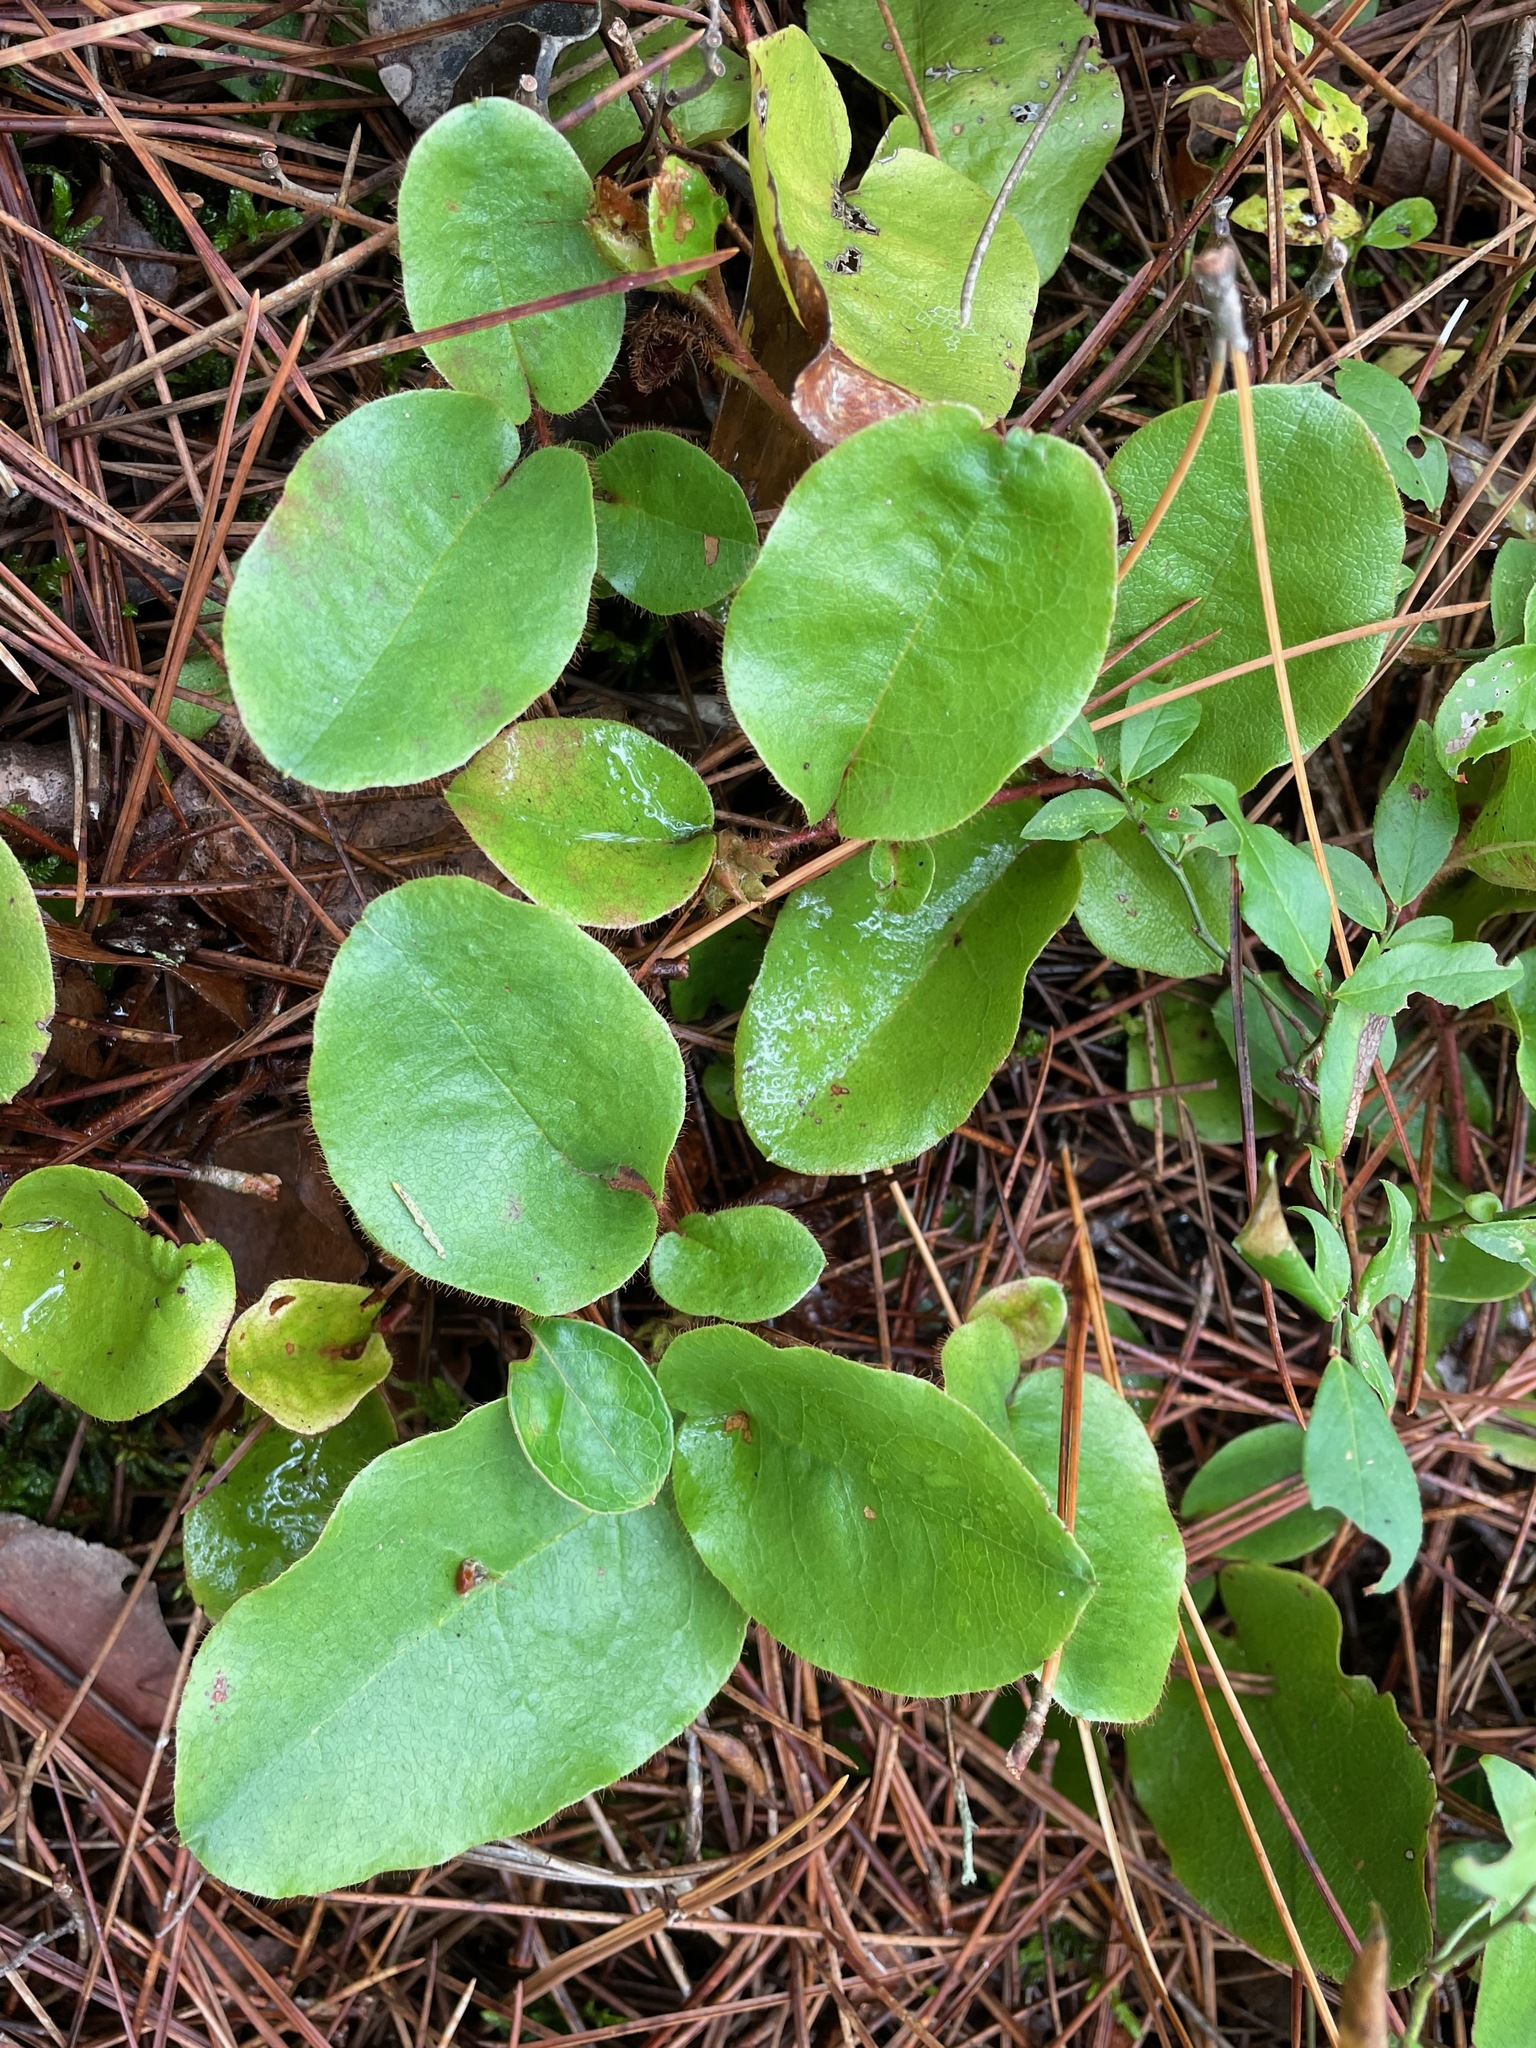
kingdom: Plantae
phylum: Tracheophyta
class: Magnoliopsida
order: Ericales
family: Ericaceae
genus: Epigaea
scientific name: Epigaea repens
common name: Gravelroot
